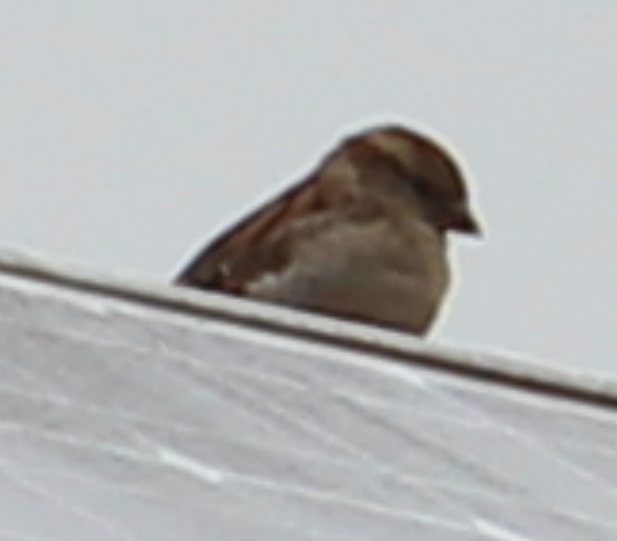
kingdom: Animalia
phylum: Chordata
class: Aves
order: Passeriformes
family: Passeridae
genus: Passer
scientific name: Passer domesticus
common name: House sparrow
